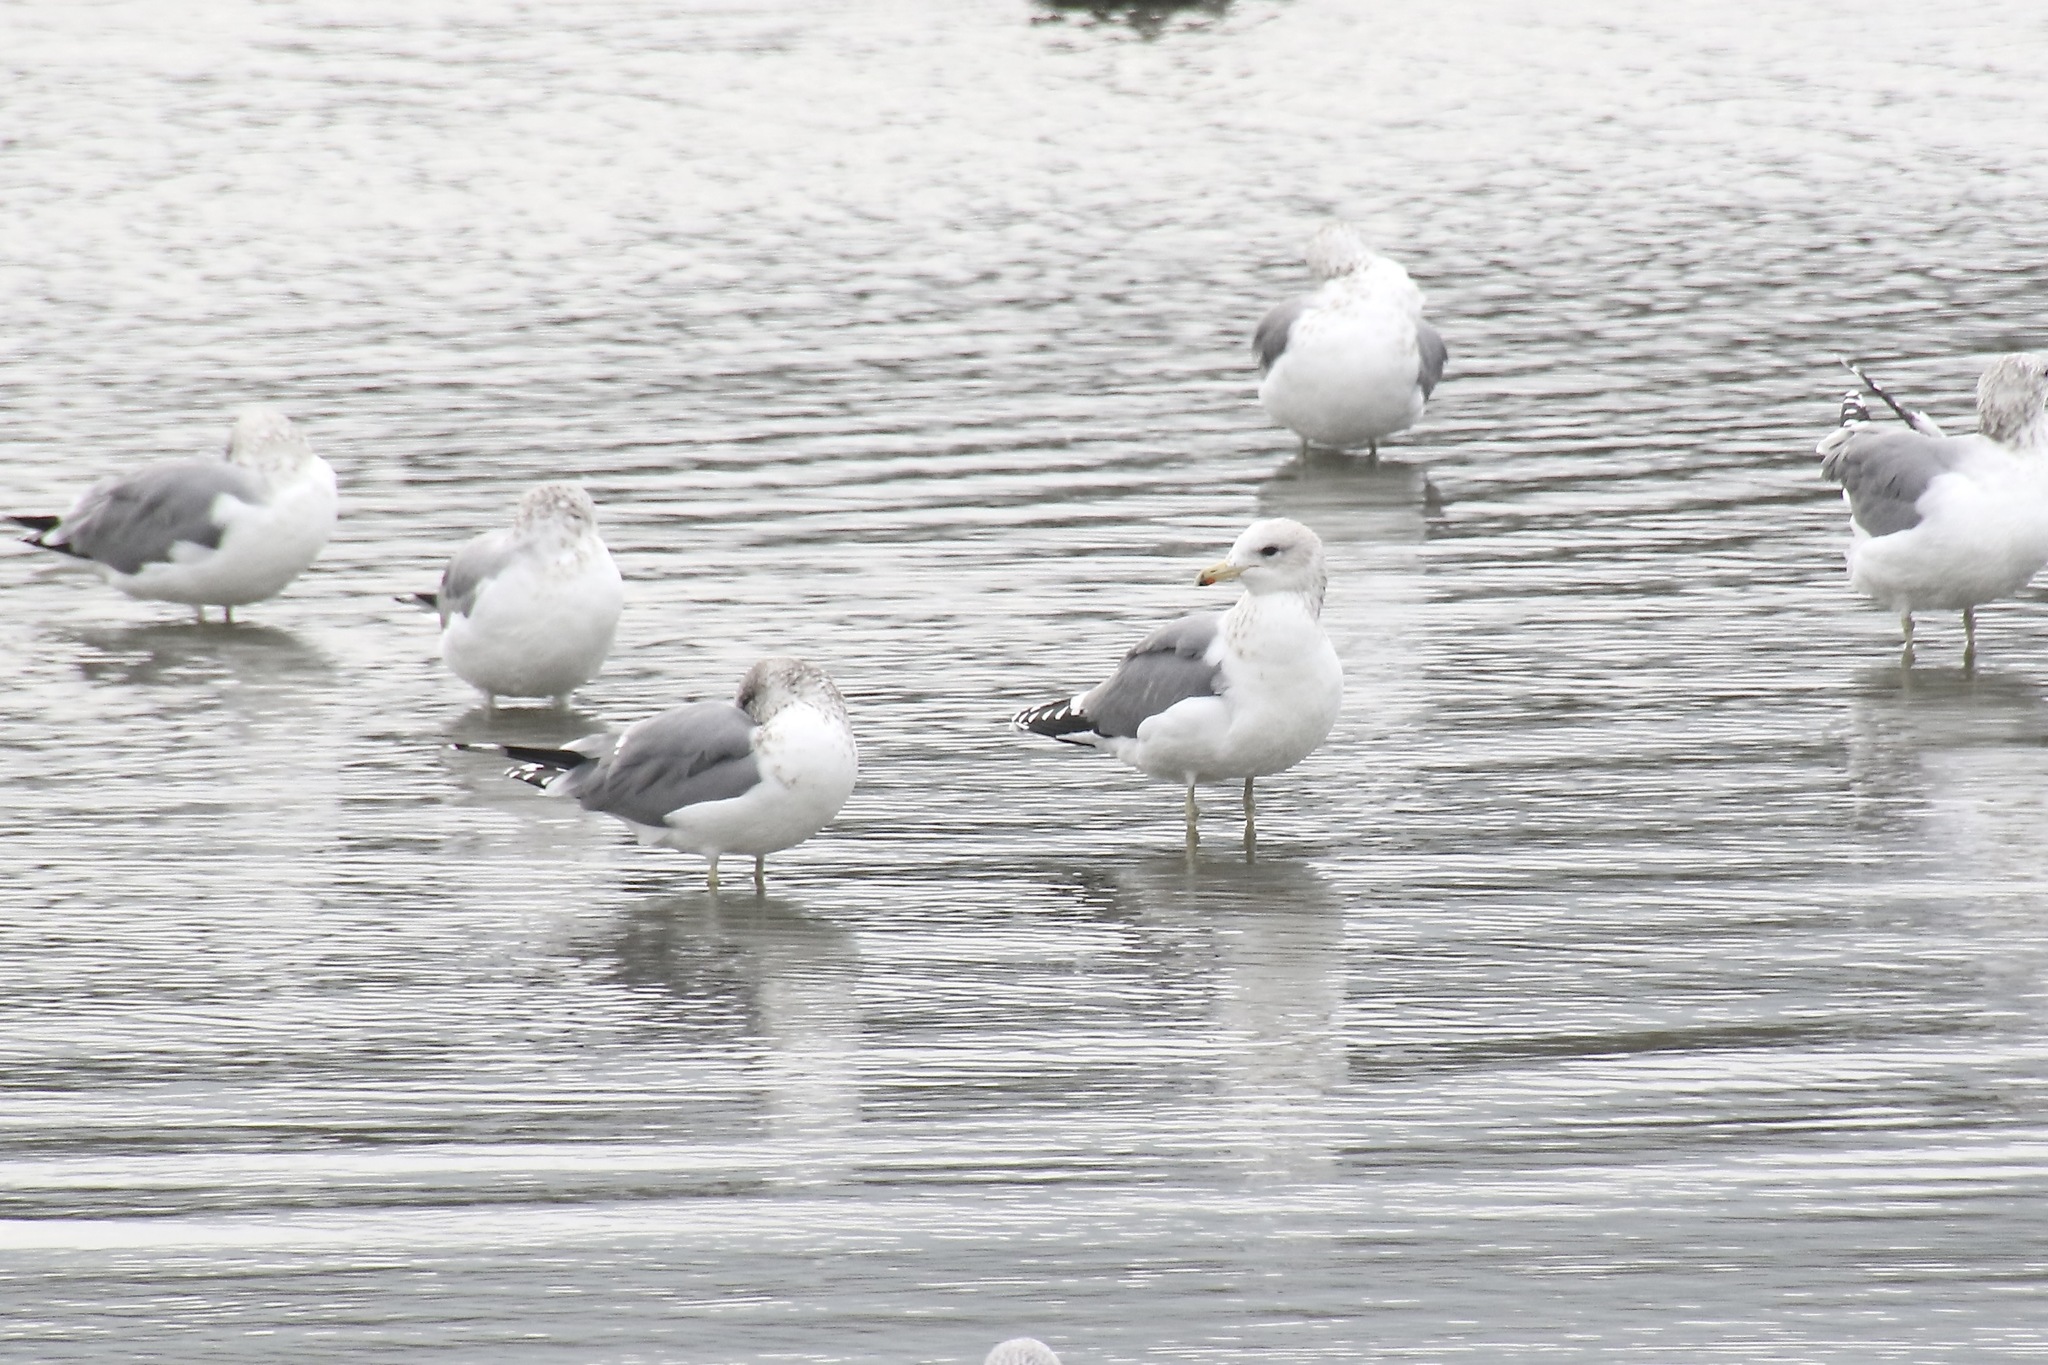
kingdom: Animalia
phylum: Chordata
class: Aves
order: Charadriiformes
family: Laridae
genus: Larus
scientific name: Larus californicus
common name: California gull
